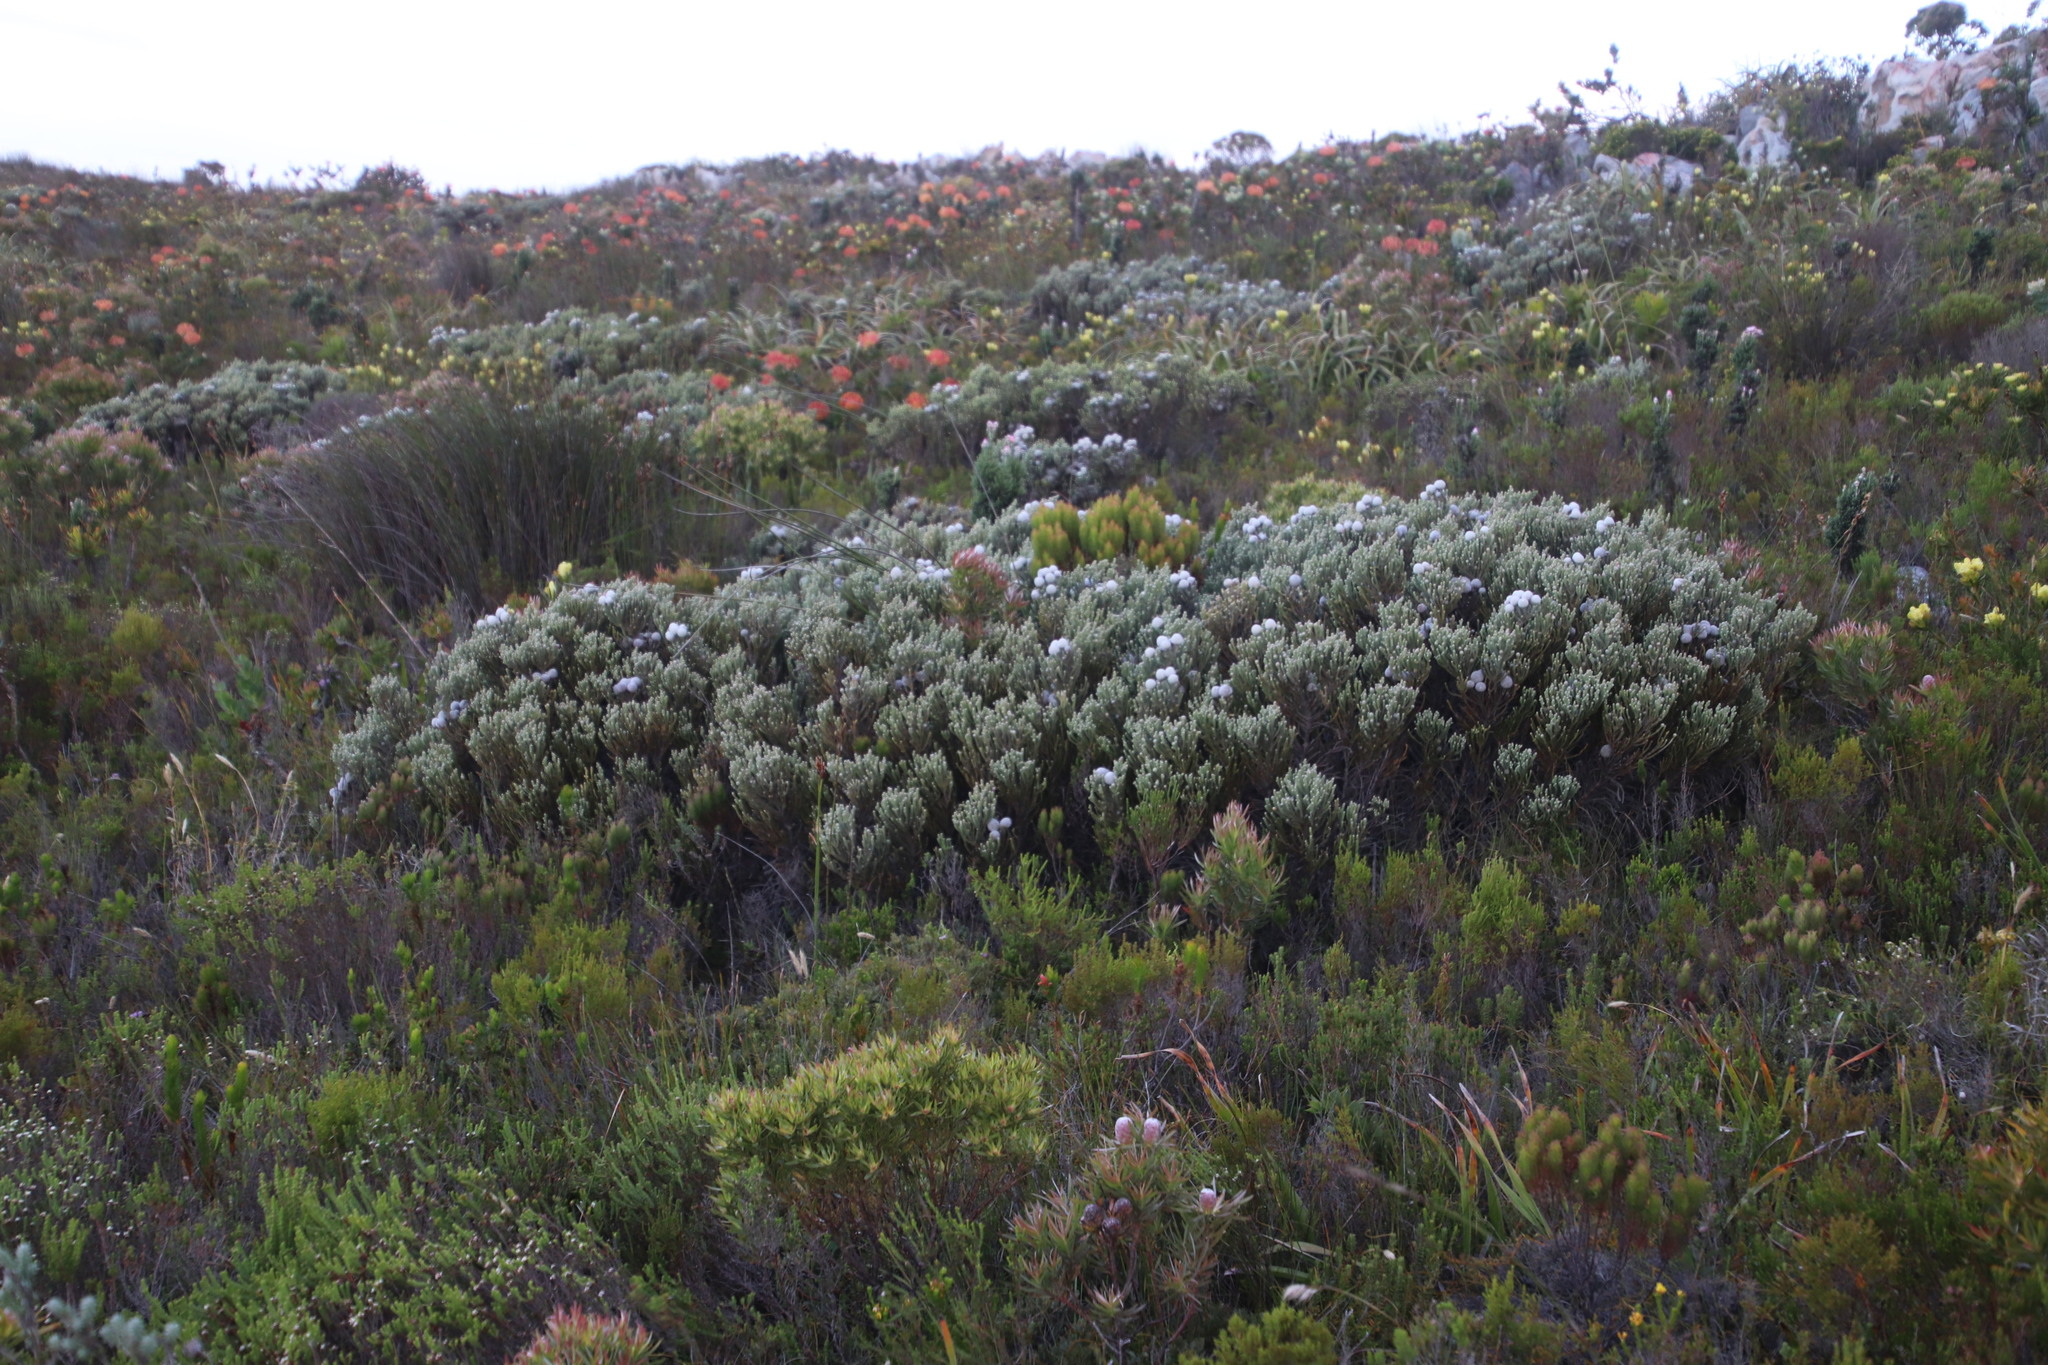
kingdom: Plantae
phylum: Tracheophyta
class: Magnoliopsida
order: Bruniales
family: Bruniaceae
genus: Brunia
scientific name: Brunia laevis
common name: Silver brunia
